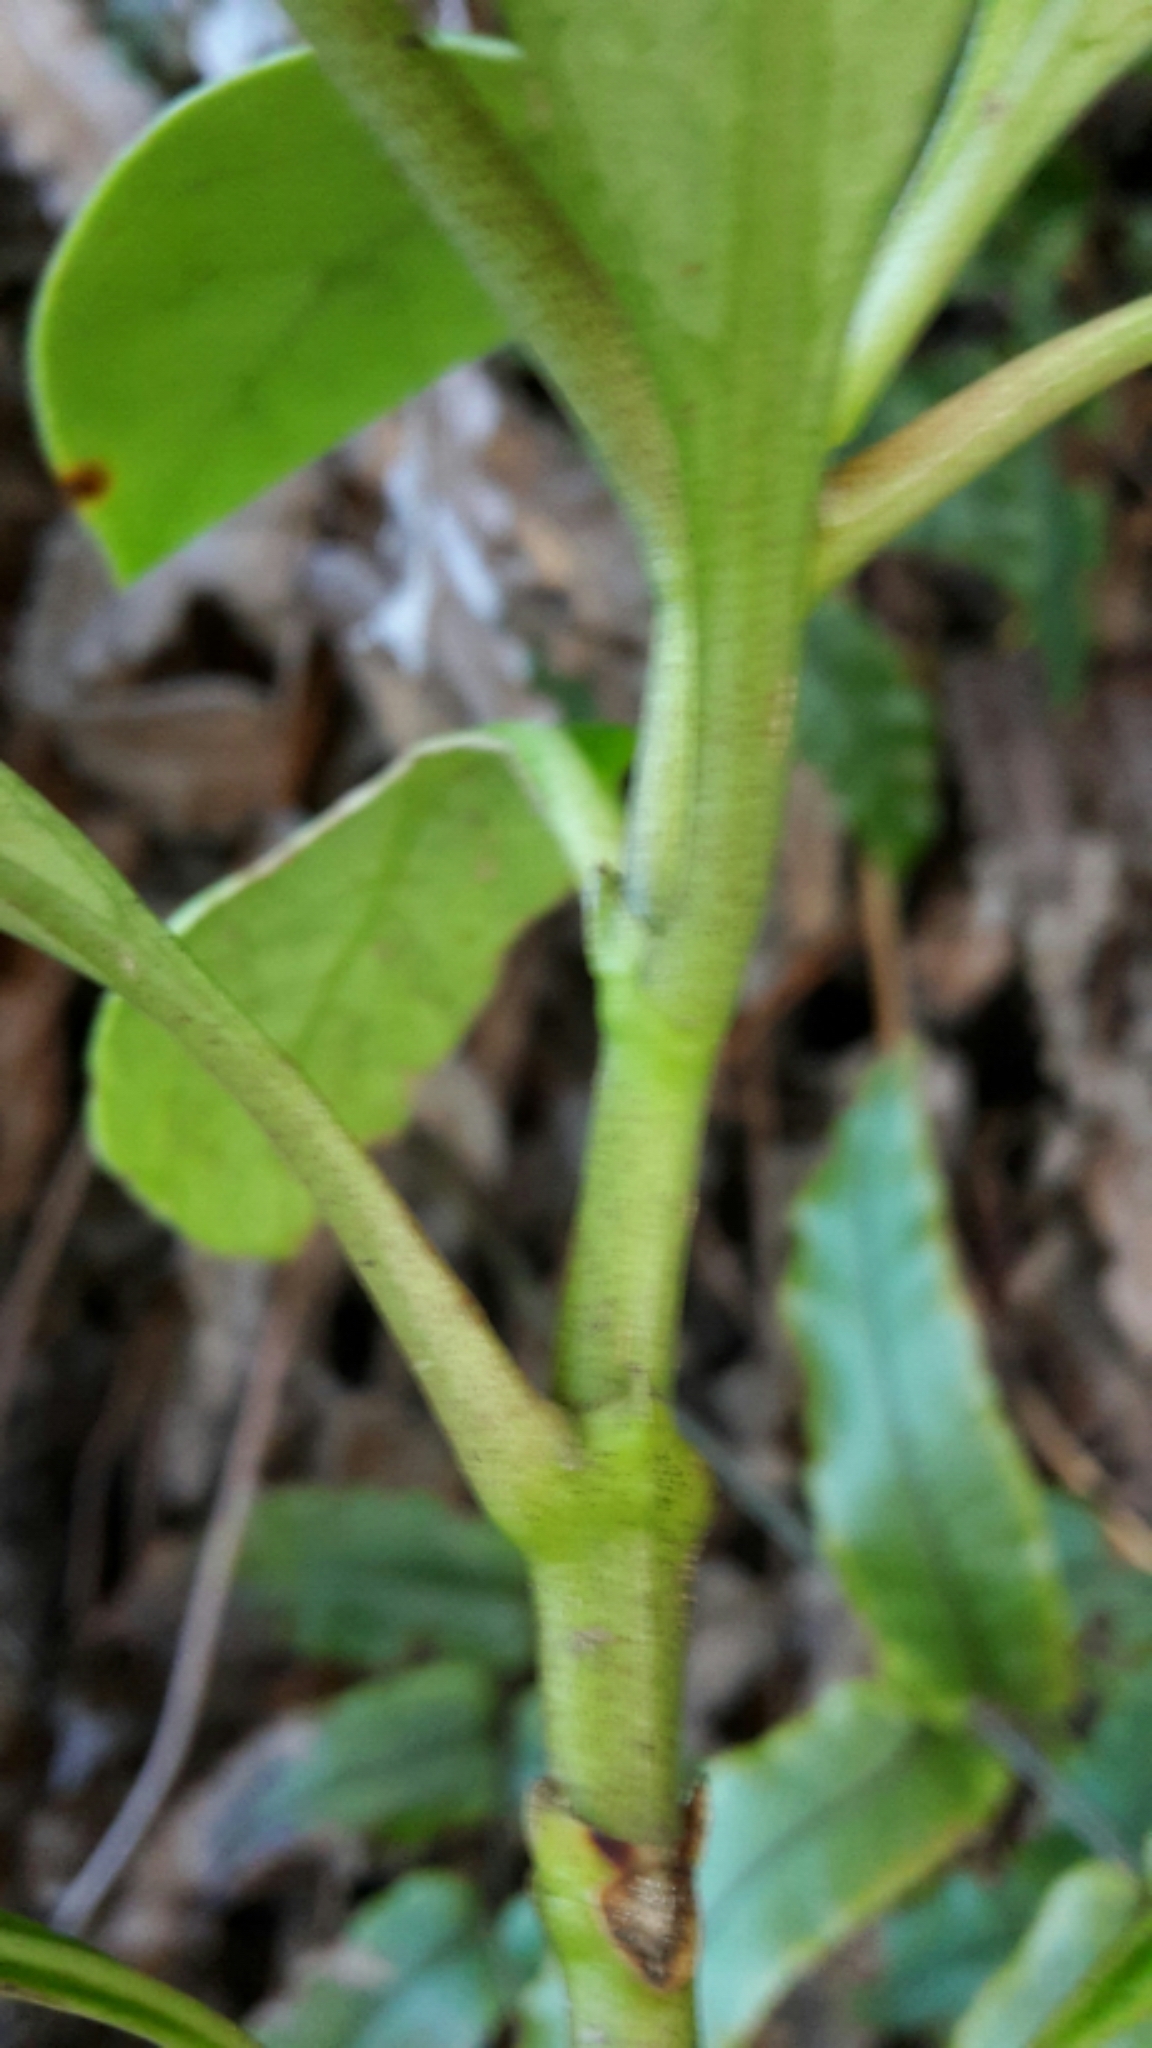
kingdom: Plantae
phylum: Tracheophyta
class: Magnoliopsida
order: Gentianales
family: Rubiaceae
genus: Coprosma
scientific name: Coprosma lucida
